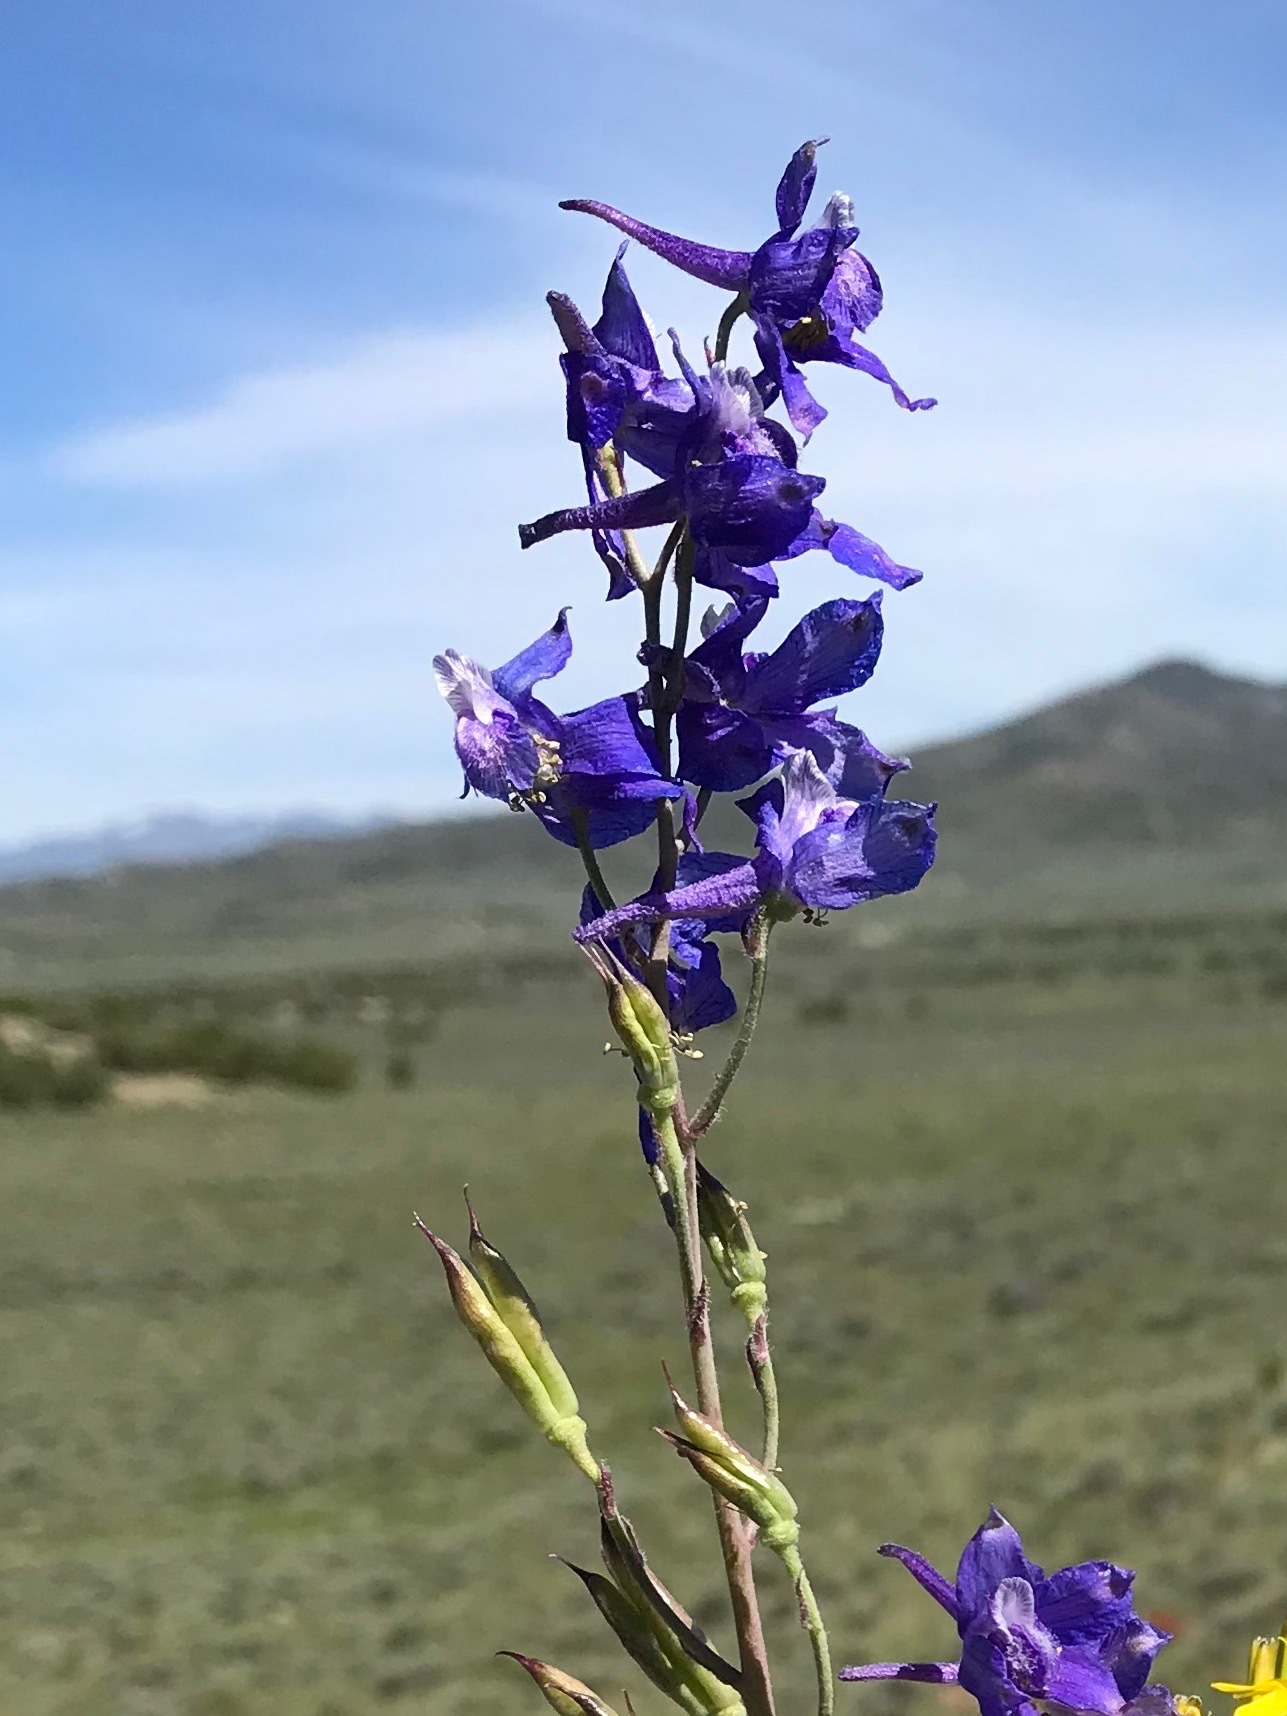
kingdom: Plantae
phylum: Tracheophyta
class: Magnoliopsida
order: Ranunculales
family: Ranunculaceae
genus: Delphinium
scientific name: Delphinium nuttallianum
